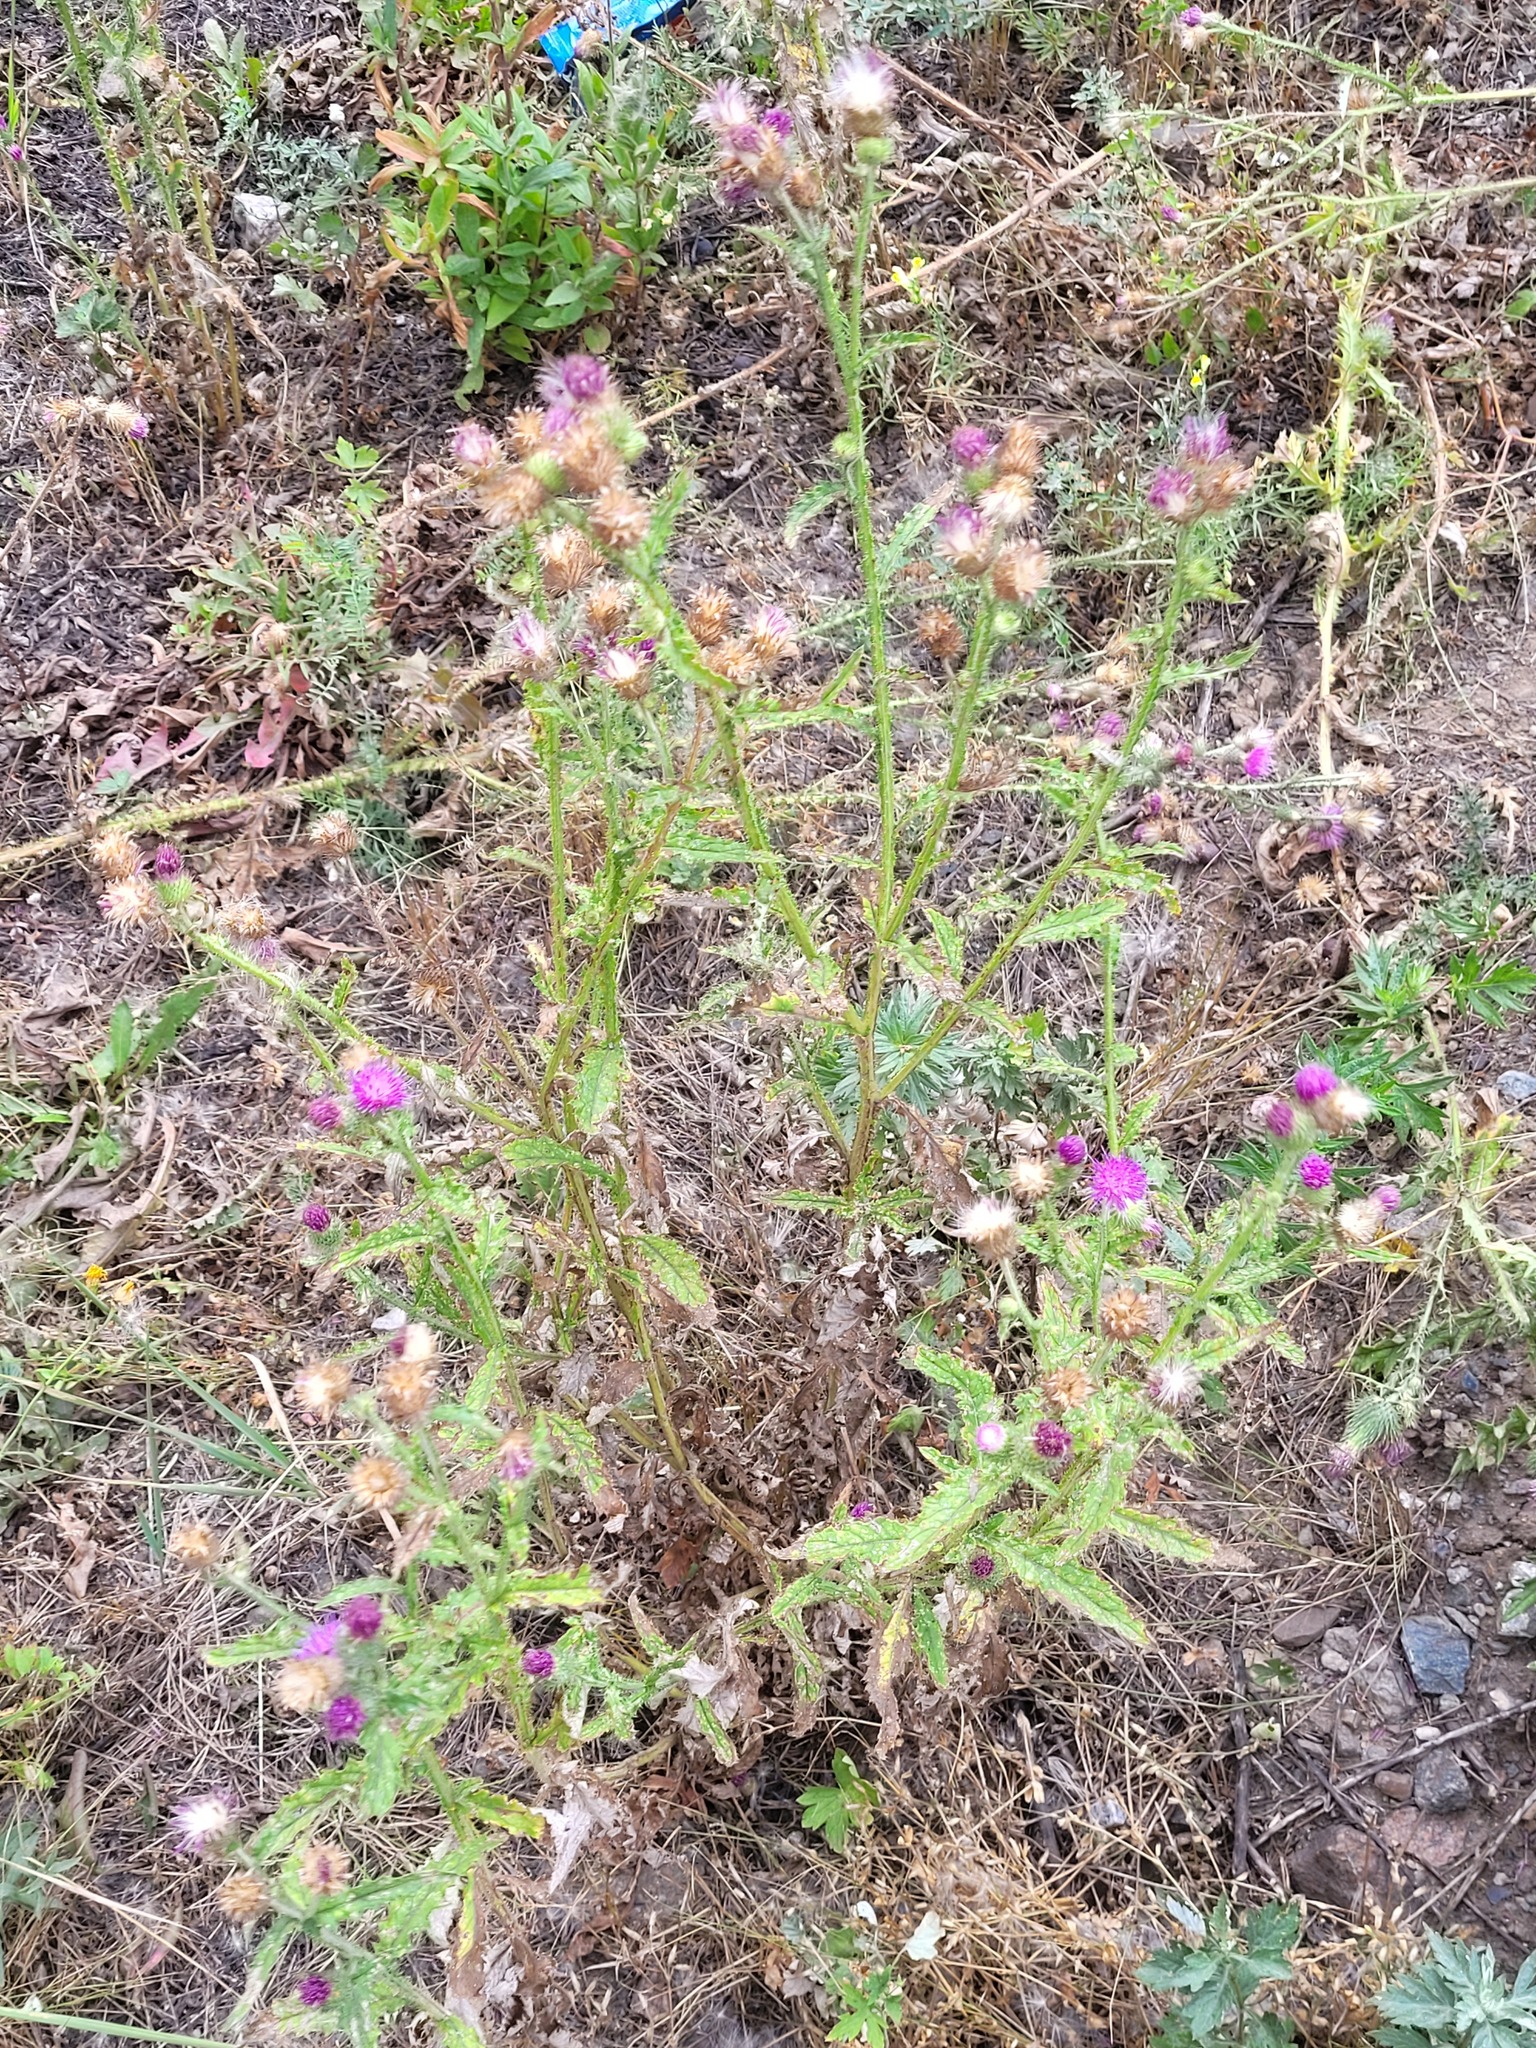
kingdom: Plantae
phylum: Tracheophyta
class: Magnoliopsida
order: Asterales
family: Asteraceae
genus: Carduus
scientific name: Carduus crispus
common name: Welted thistle
